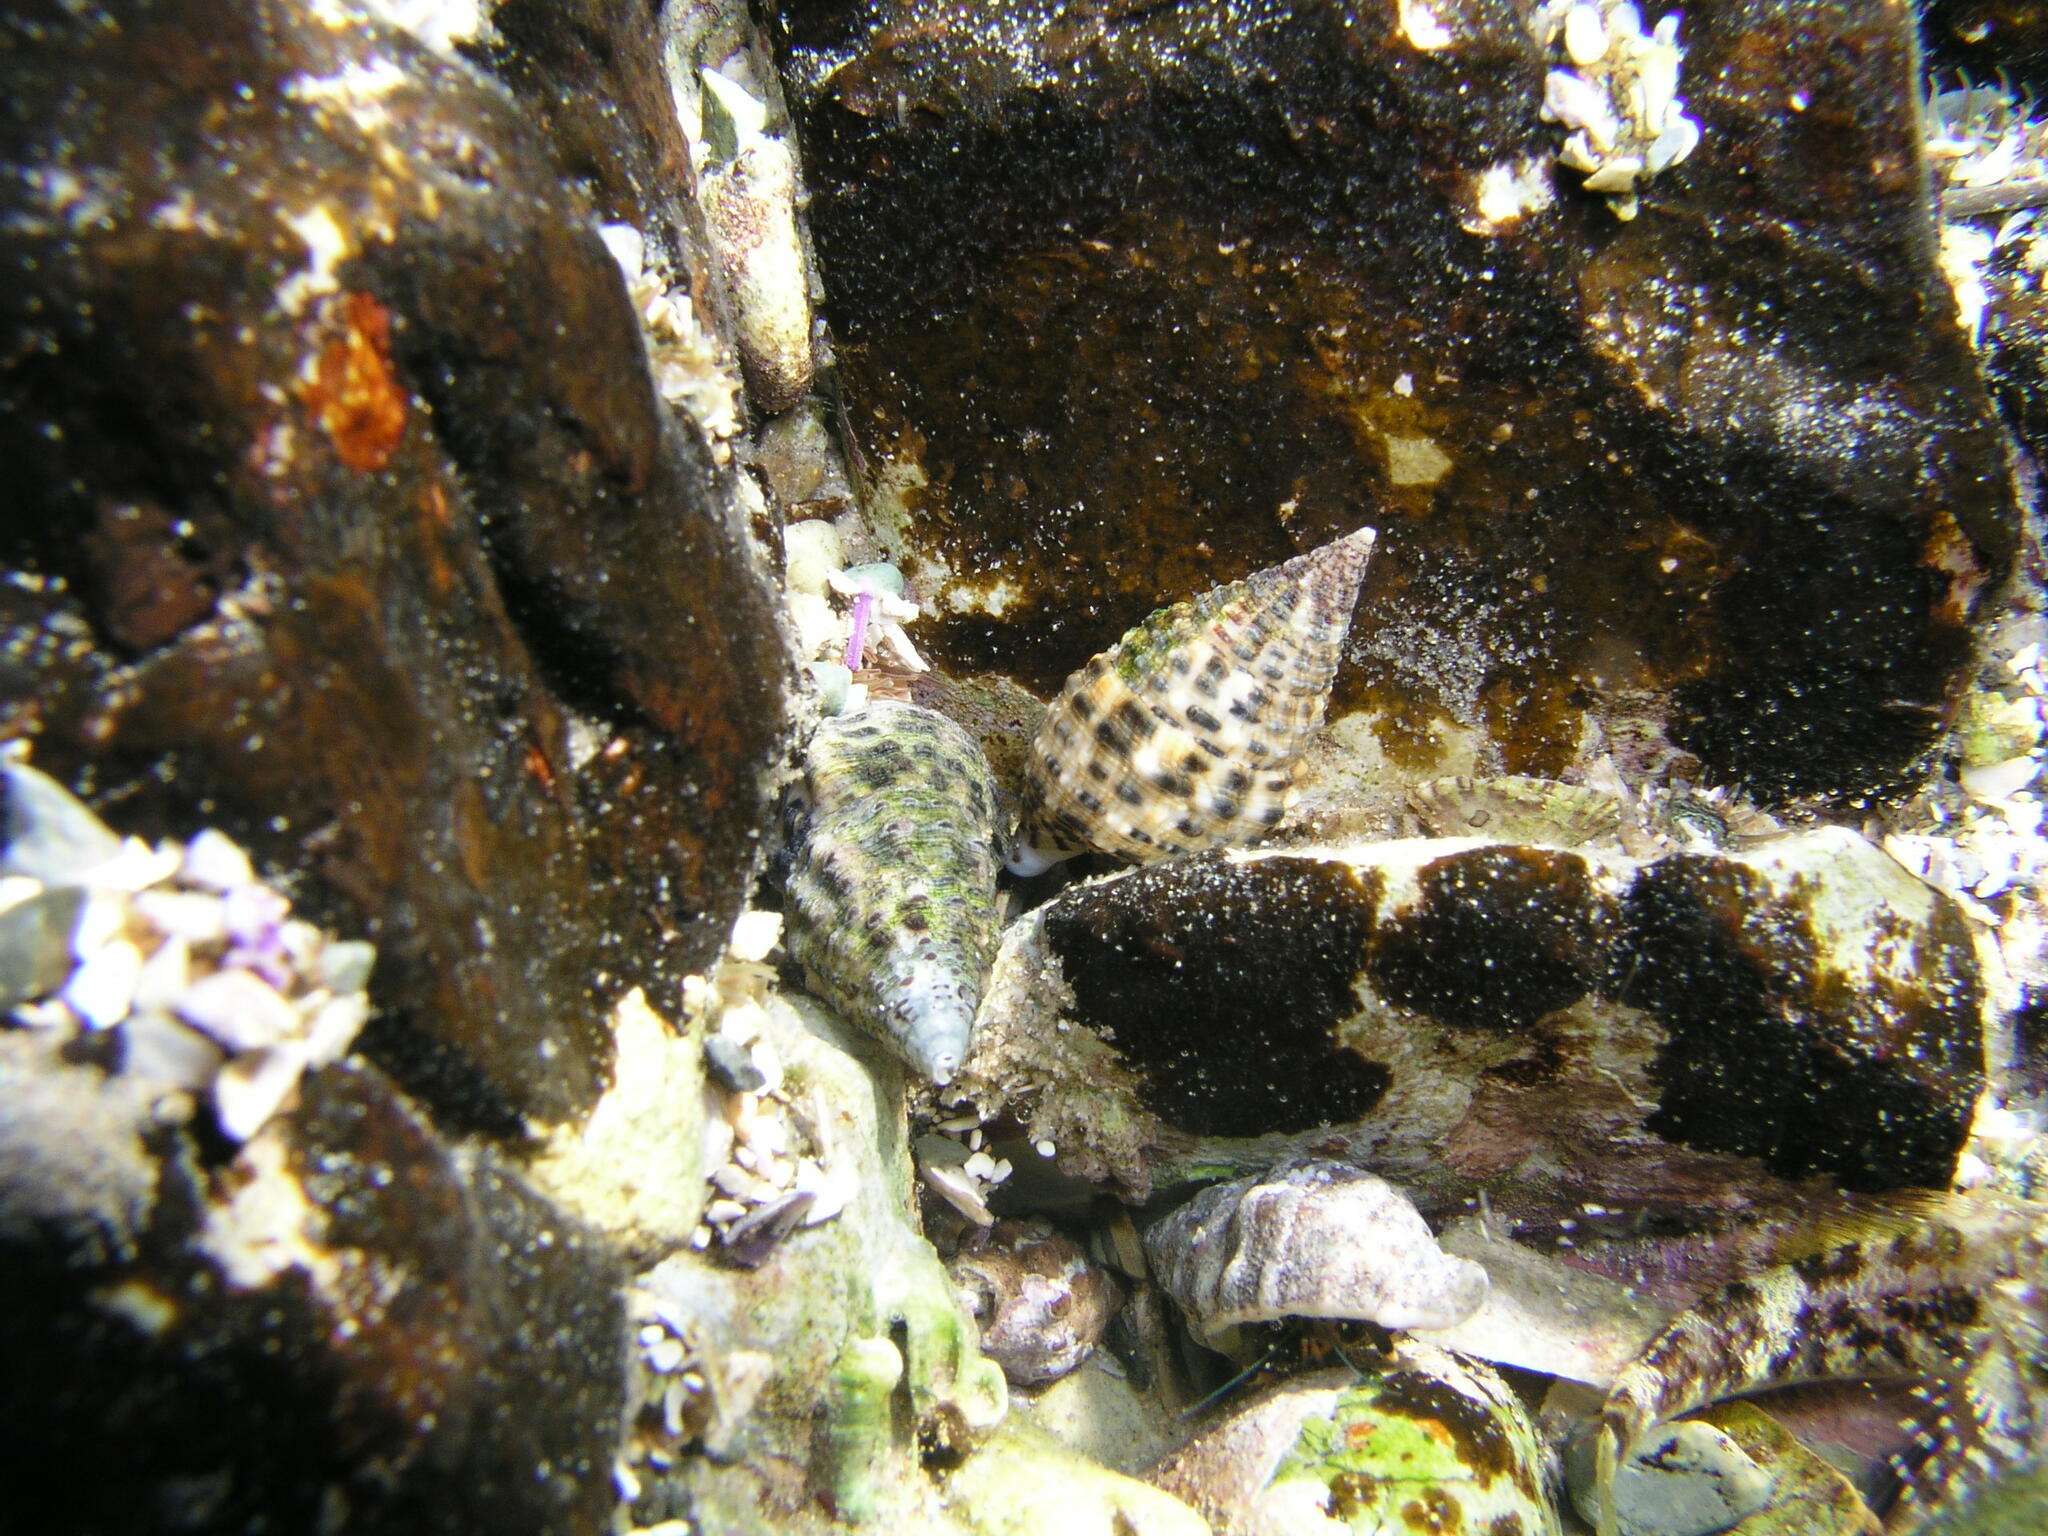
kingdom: Animalia
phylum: Mollusca
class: Gastropoda
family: Cerithiidae
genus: Clypeomorus
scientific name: Clypeomorus petrosa
